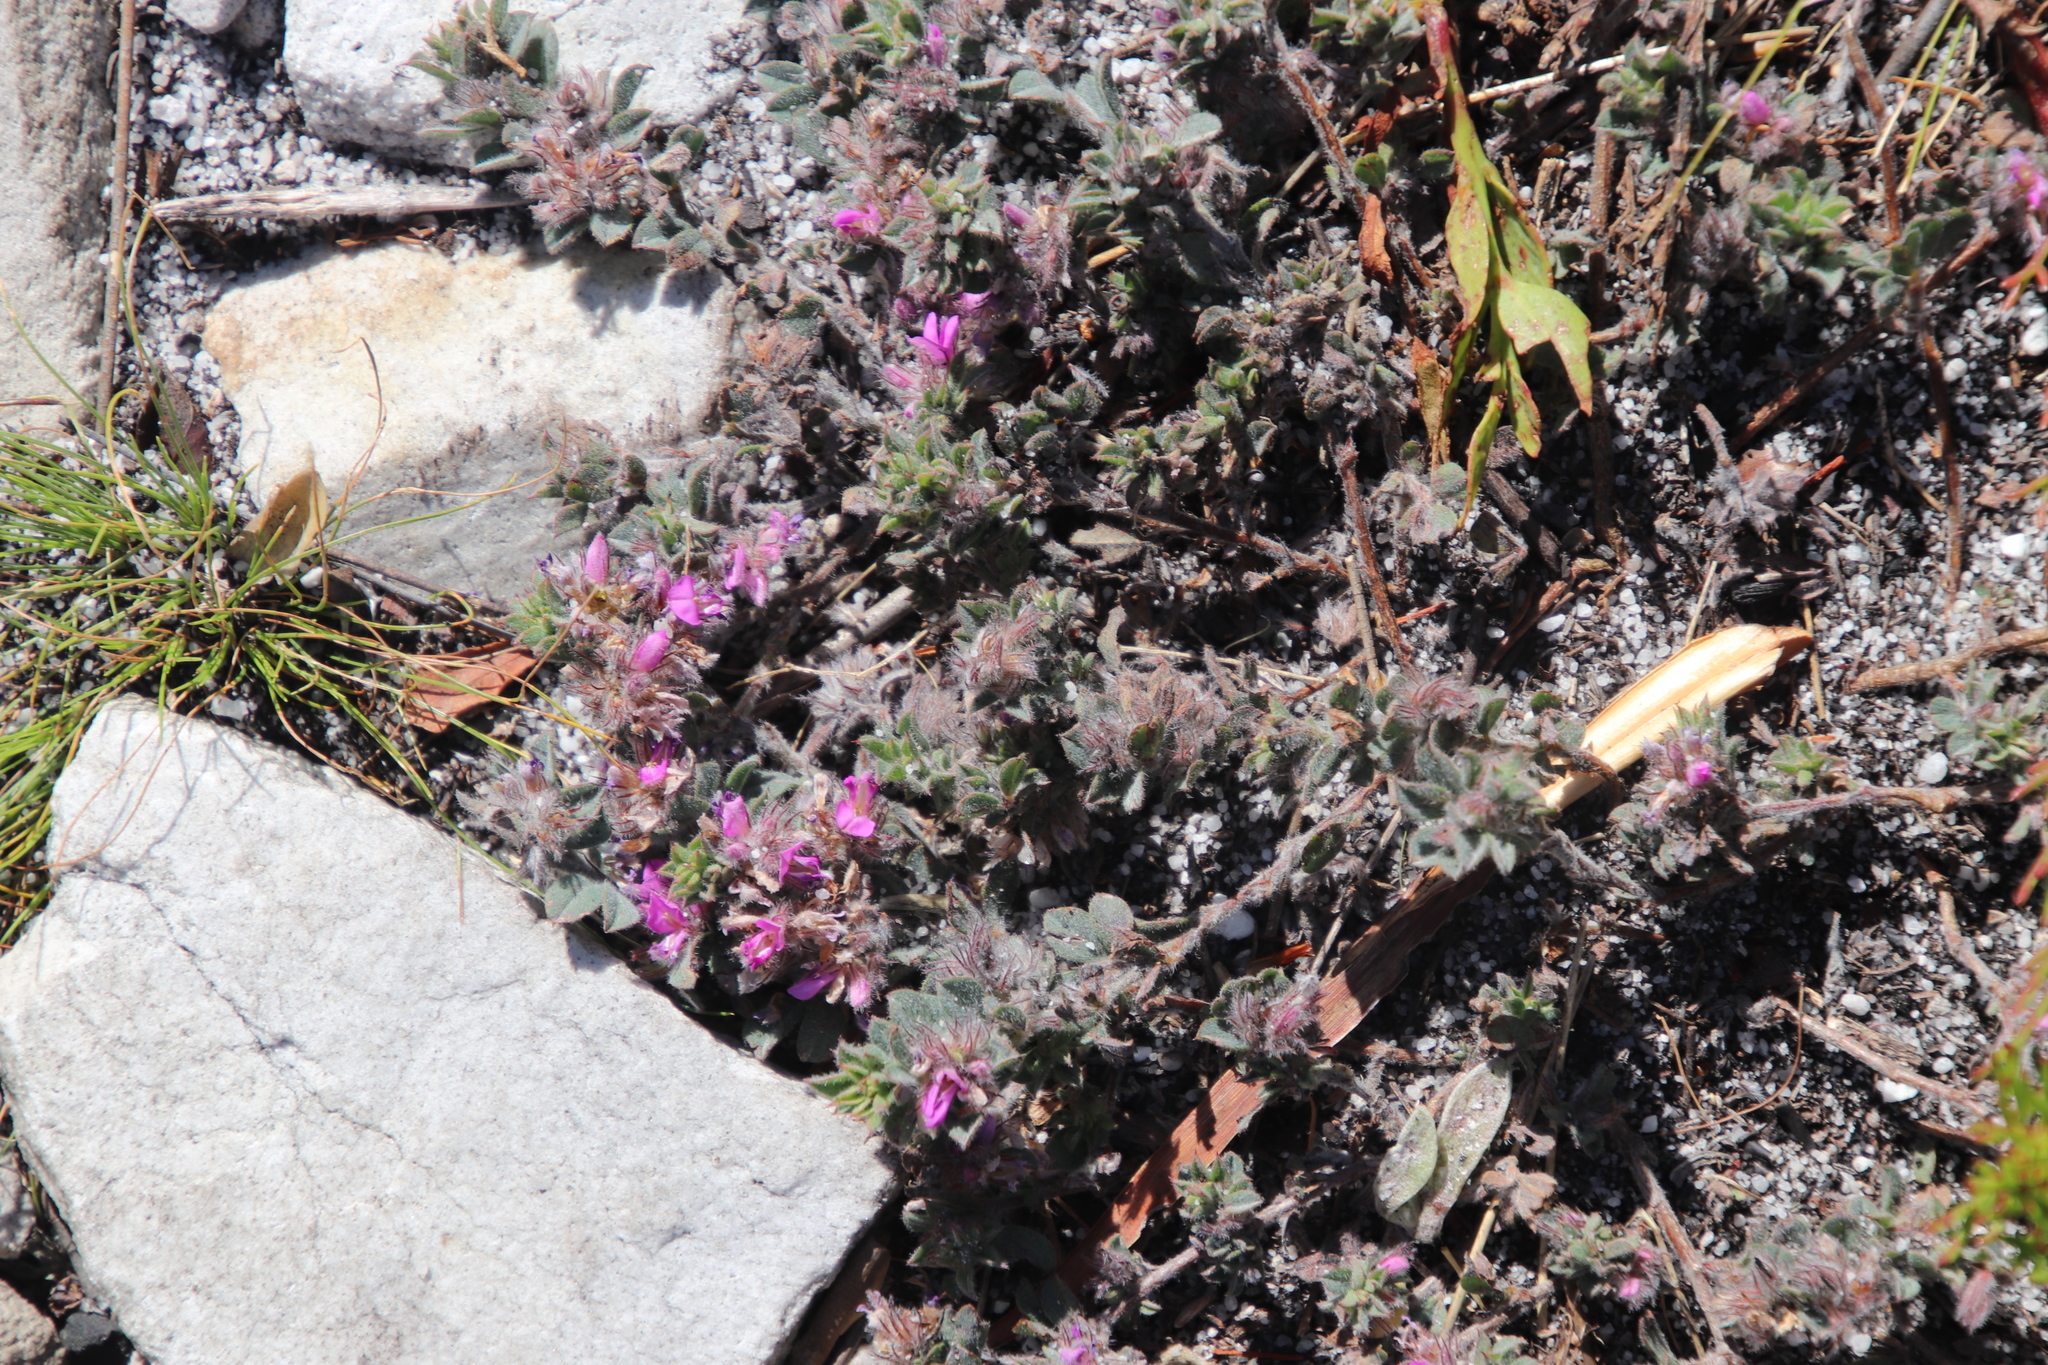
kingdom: Plantae
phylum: Tracheophyta
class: Magnoliopsida
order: Fabales
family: Fabaceae
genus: Indigofera
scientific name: Indigofera glomerata
